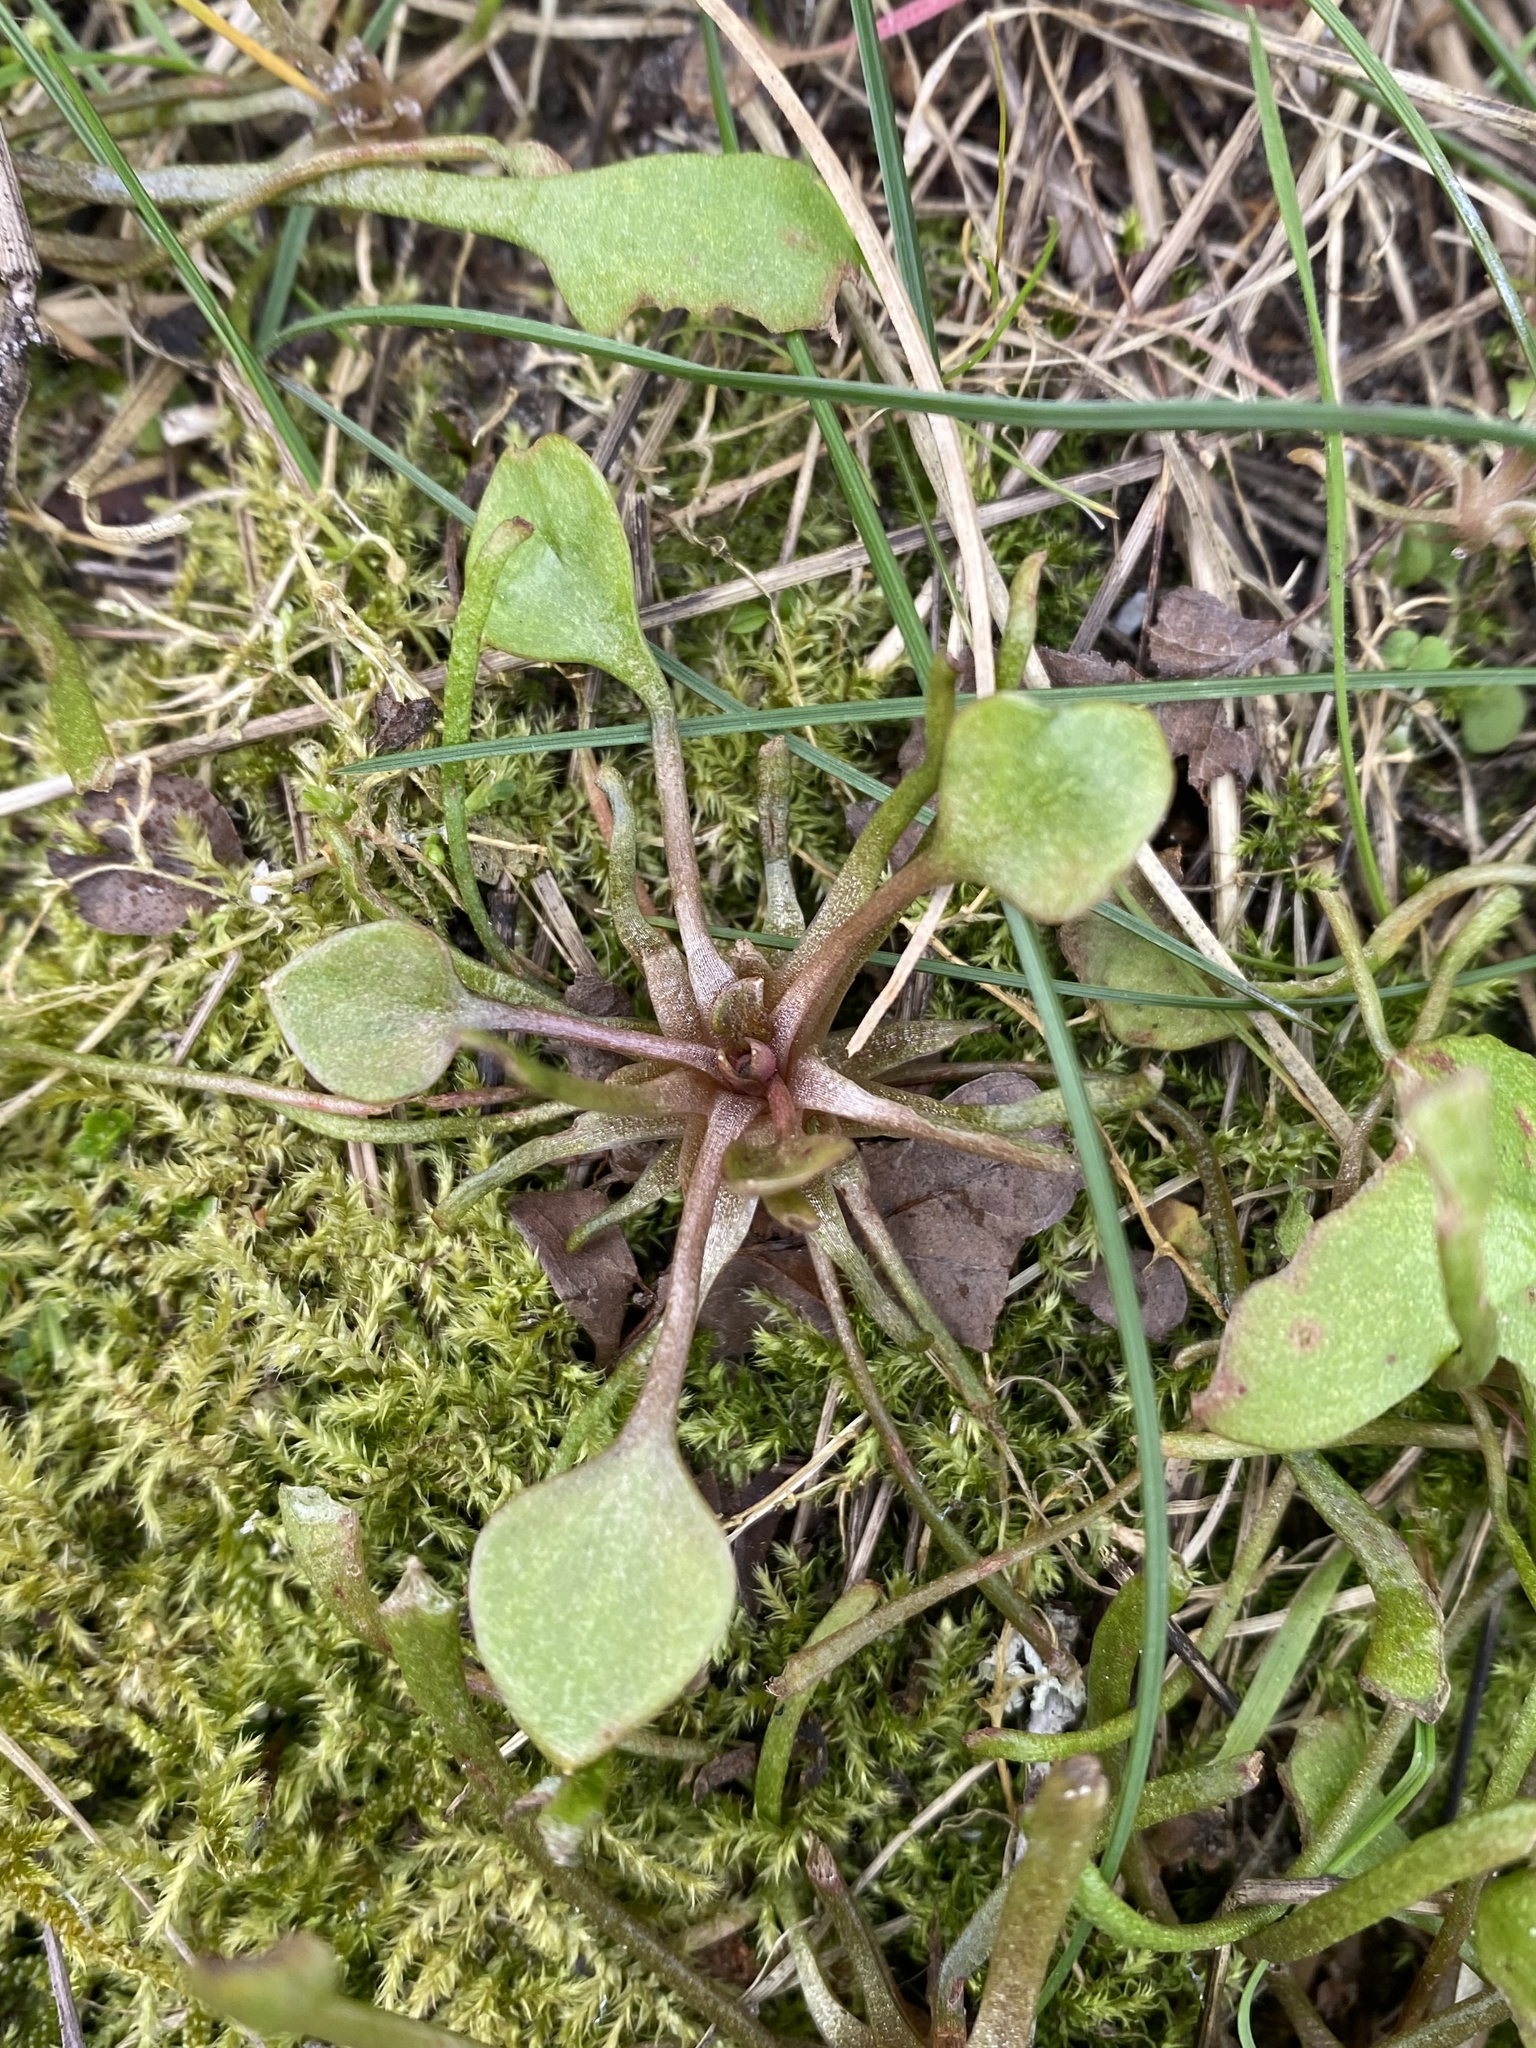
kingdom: Plantae
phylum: Tracheophyta
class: Magnoliopsida
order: Caryophyllales
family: Montiaceae
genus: Claytonia
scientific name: Claytonia perfoliata
